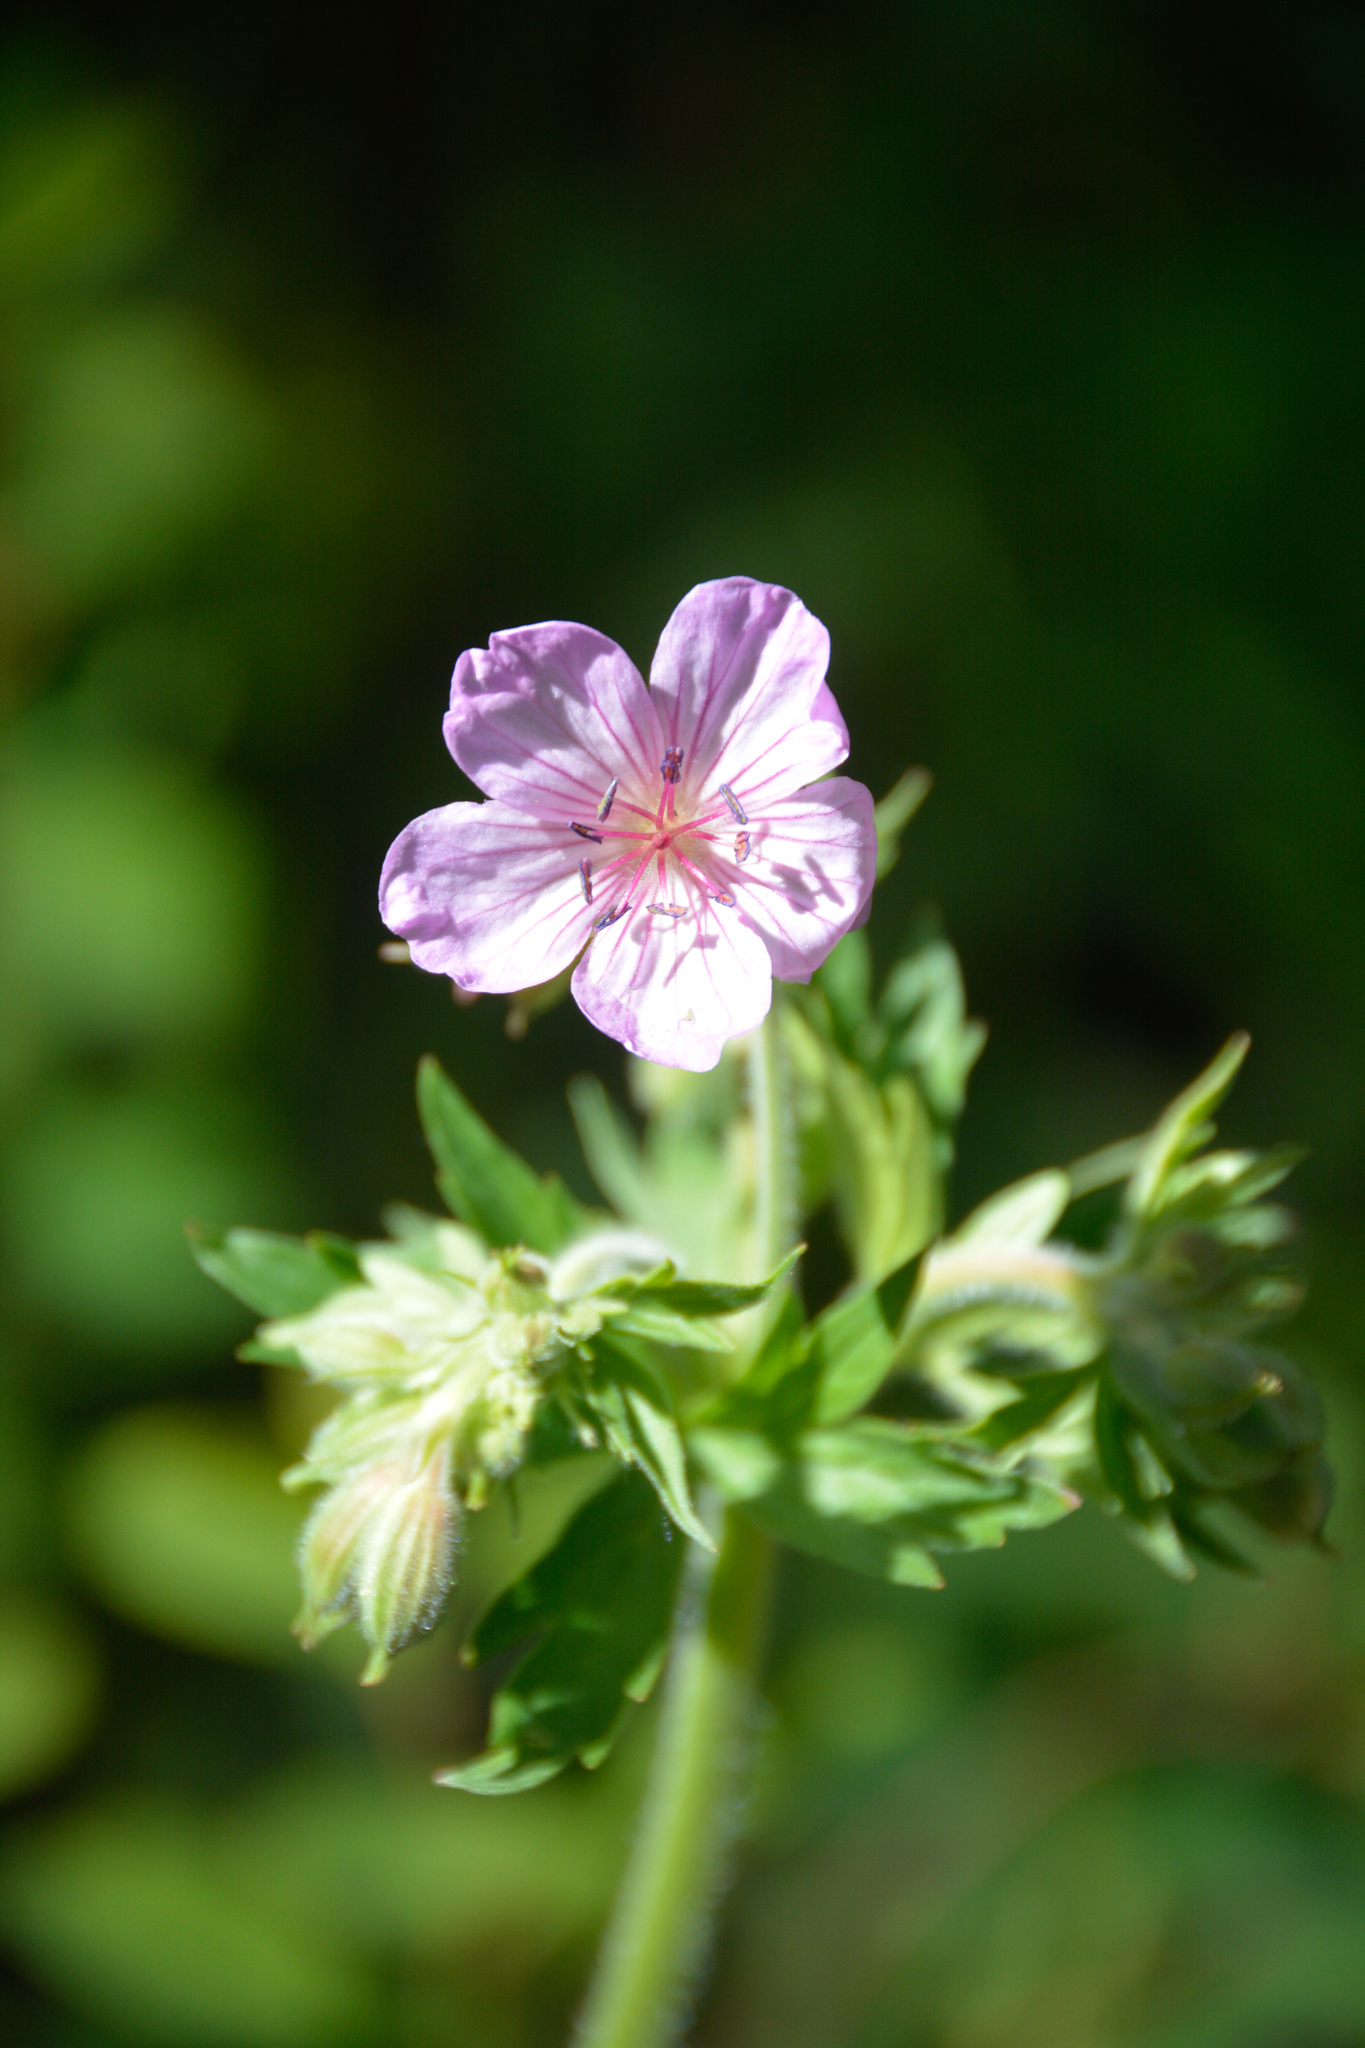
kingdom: Plantae
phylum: Tracheophyta
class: Magnoliopsida
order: Geraniales
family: Geraniaceae
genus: Geranium
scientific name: Geranium viscosissimum
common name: Purple geranium
